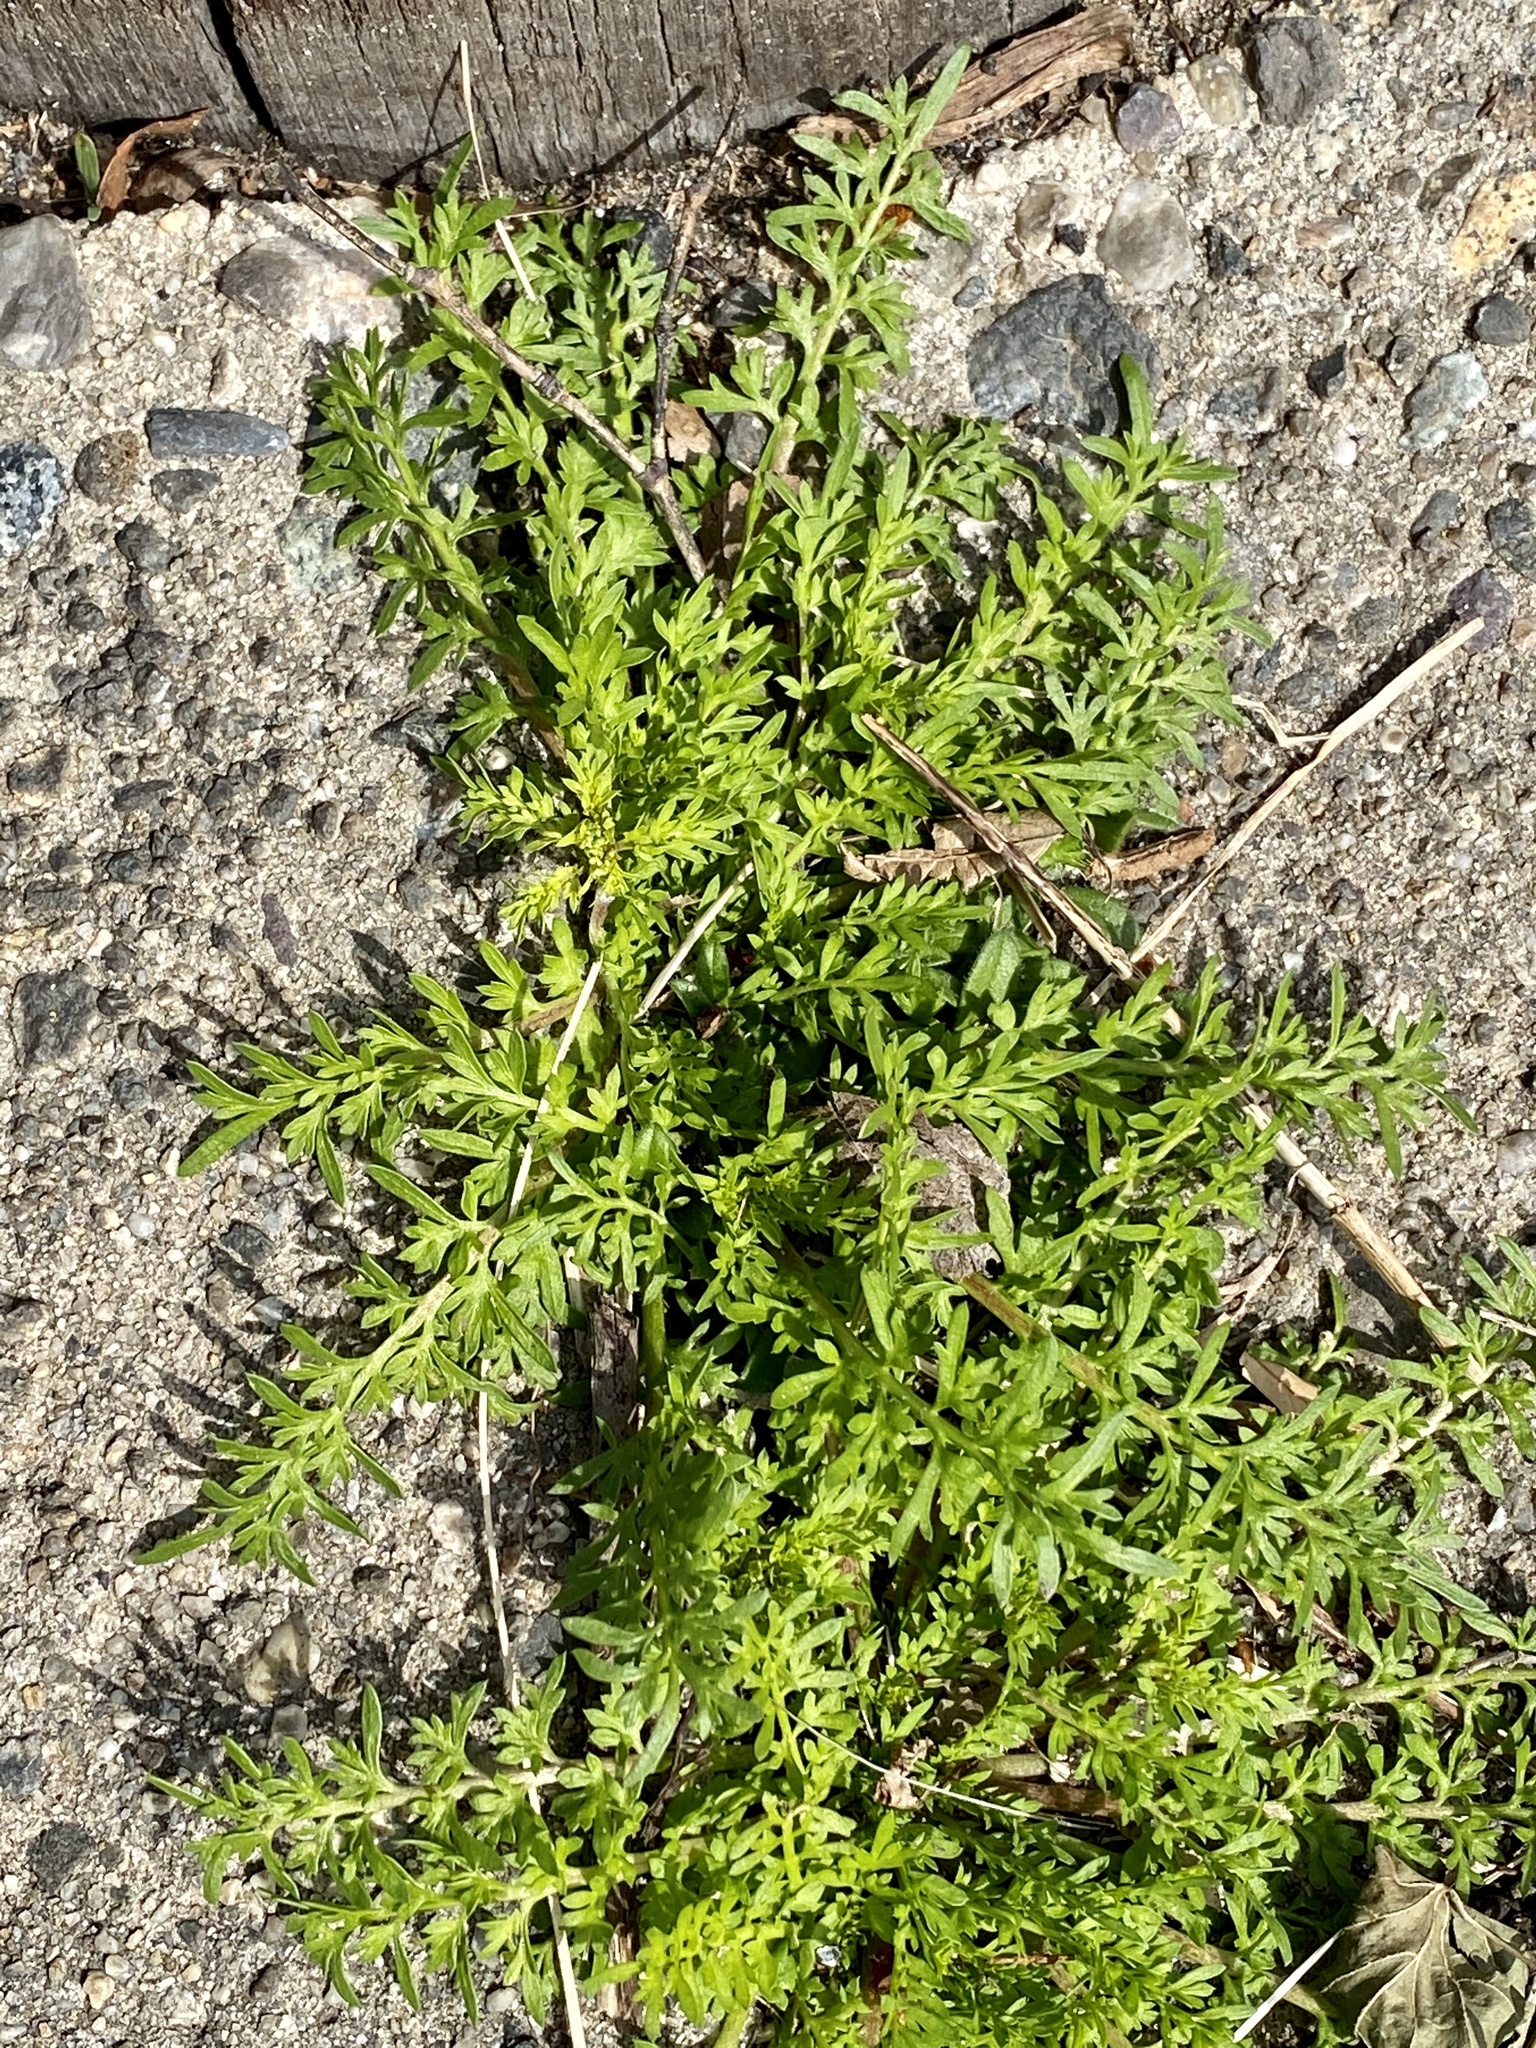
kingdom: Plantae
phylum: Tracheophyta
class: Magnoliopsida
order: Brassicales
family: Brassicaceae
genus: Lepidium
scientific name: Lepidium didymum
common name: Lesser swinecress
